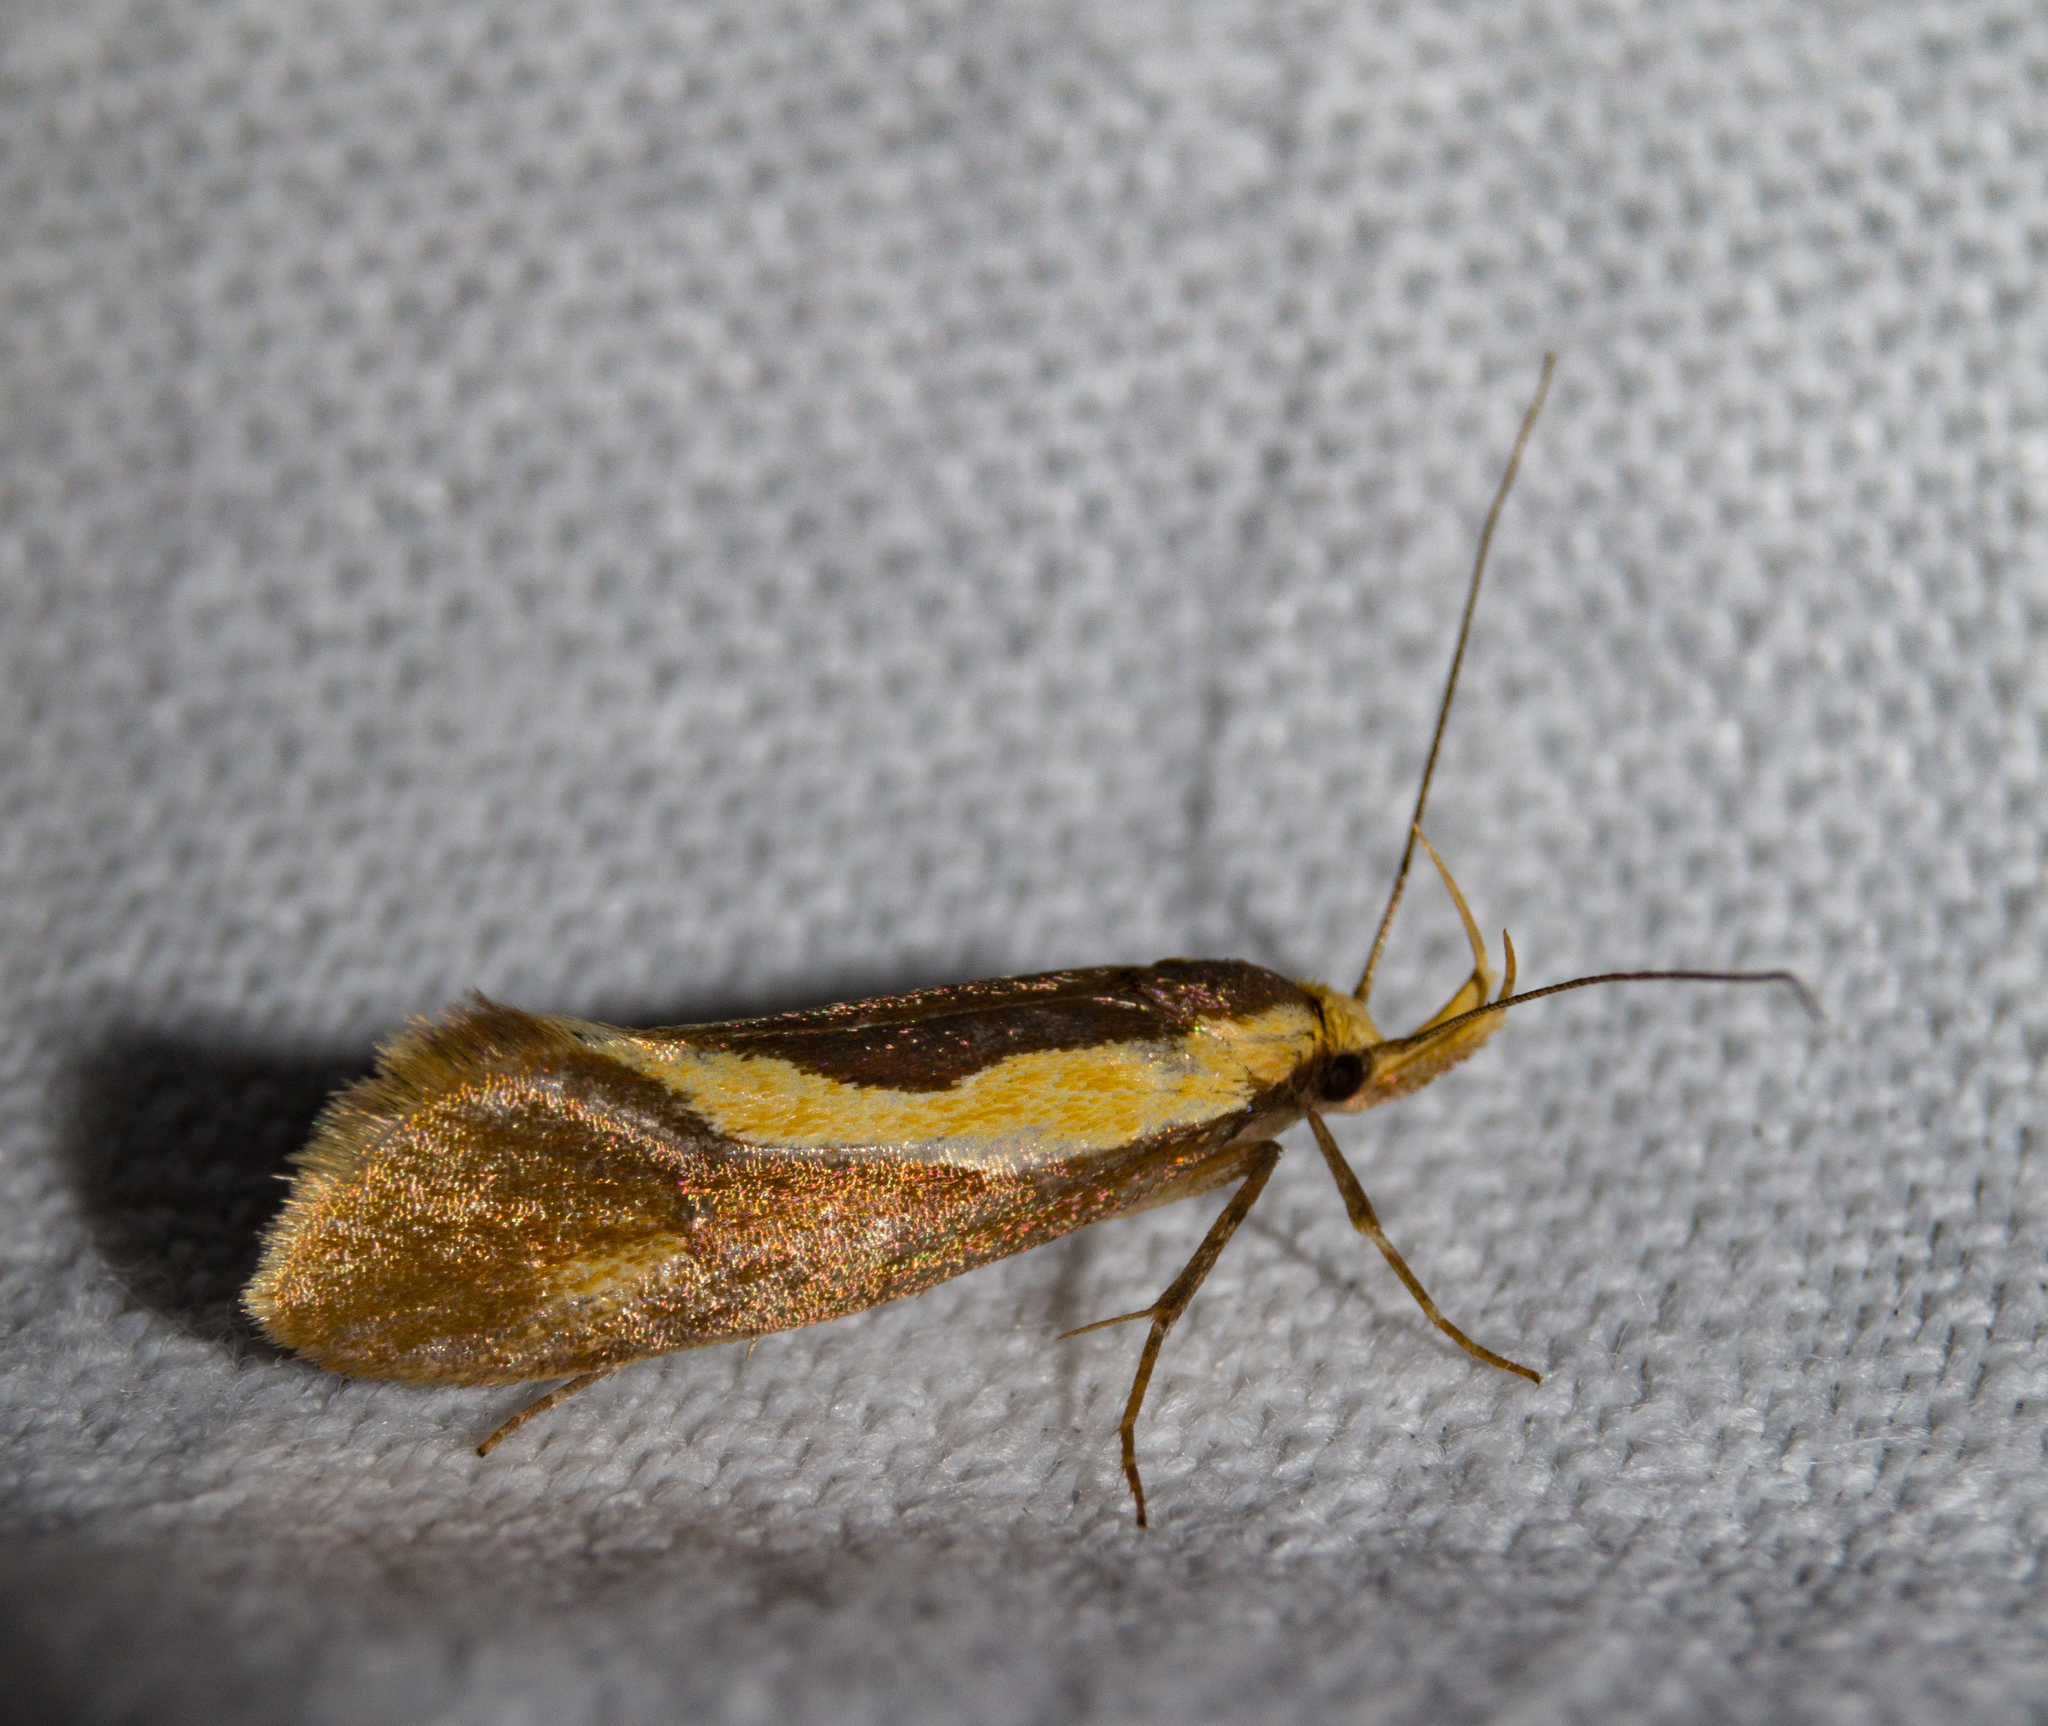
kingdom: Animalia
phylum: Arthropoda
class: Insecta
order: Lepidoptera
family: Oecophoridae
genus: Harpella
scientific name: Harpella forficella
